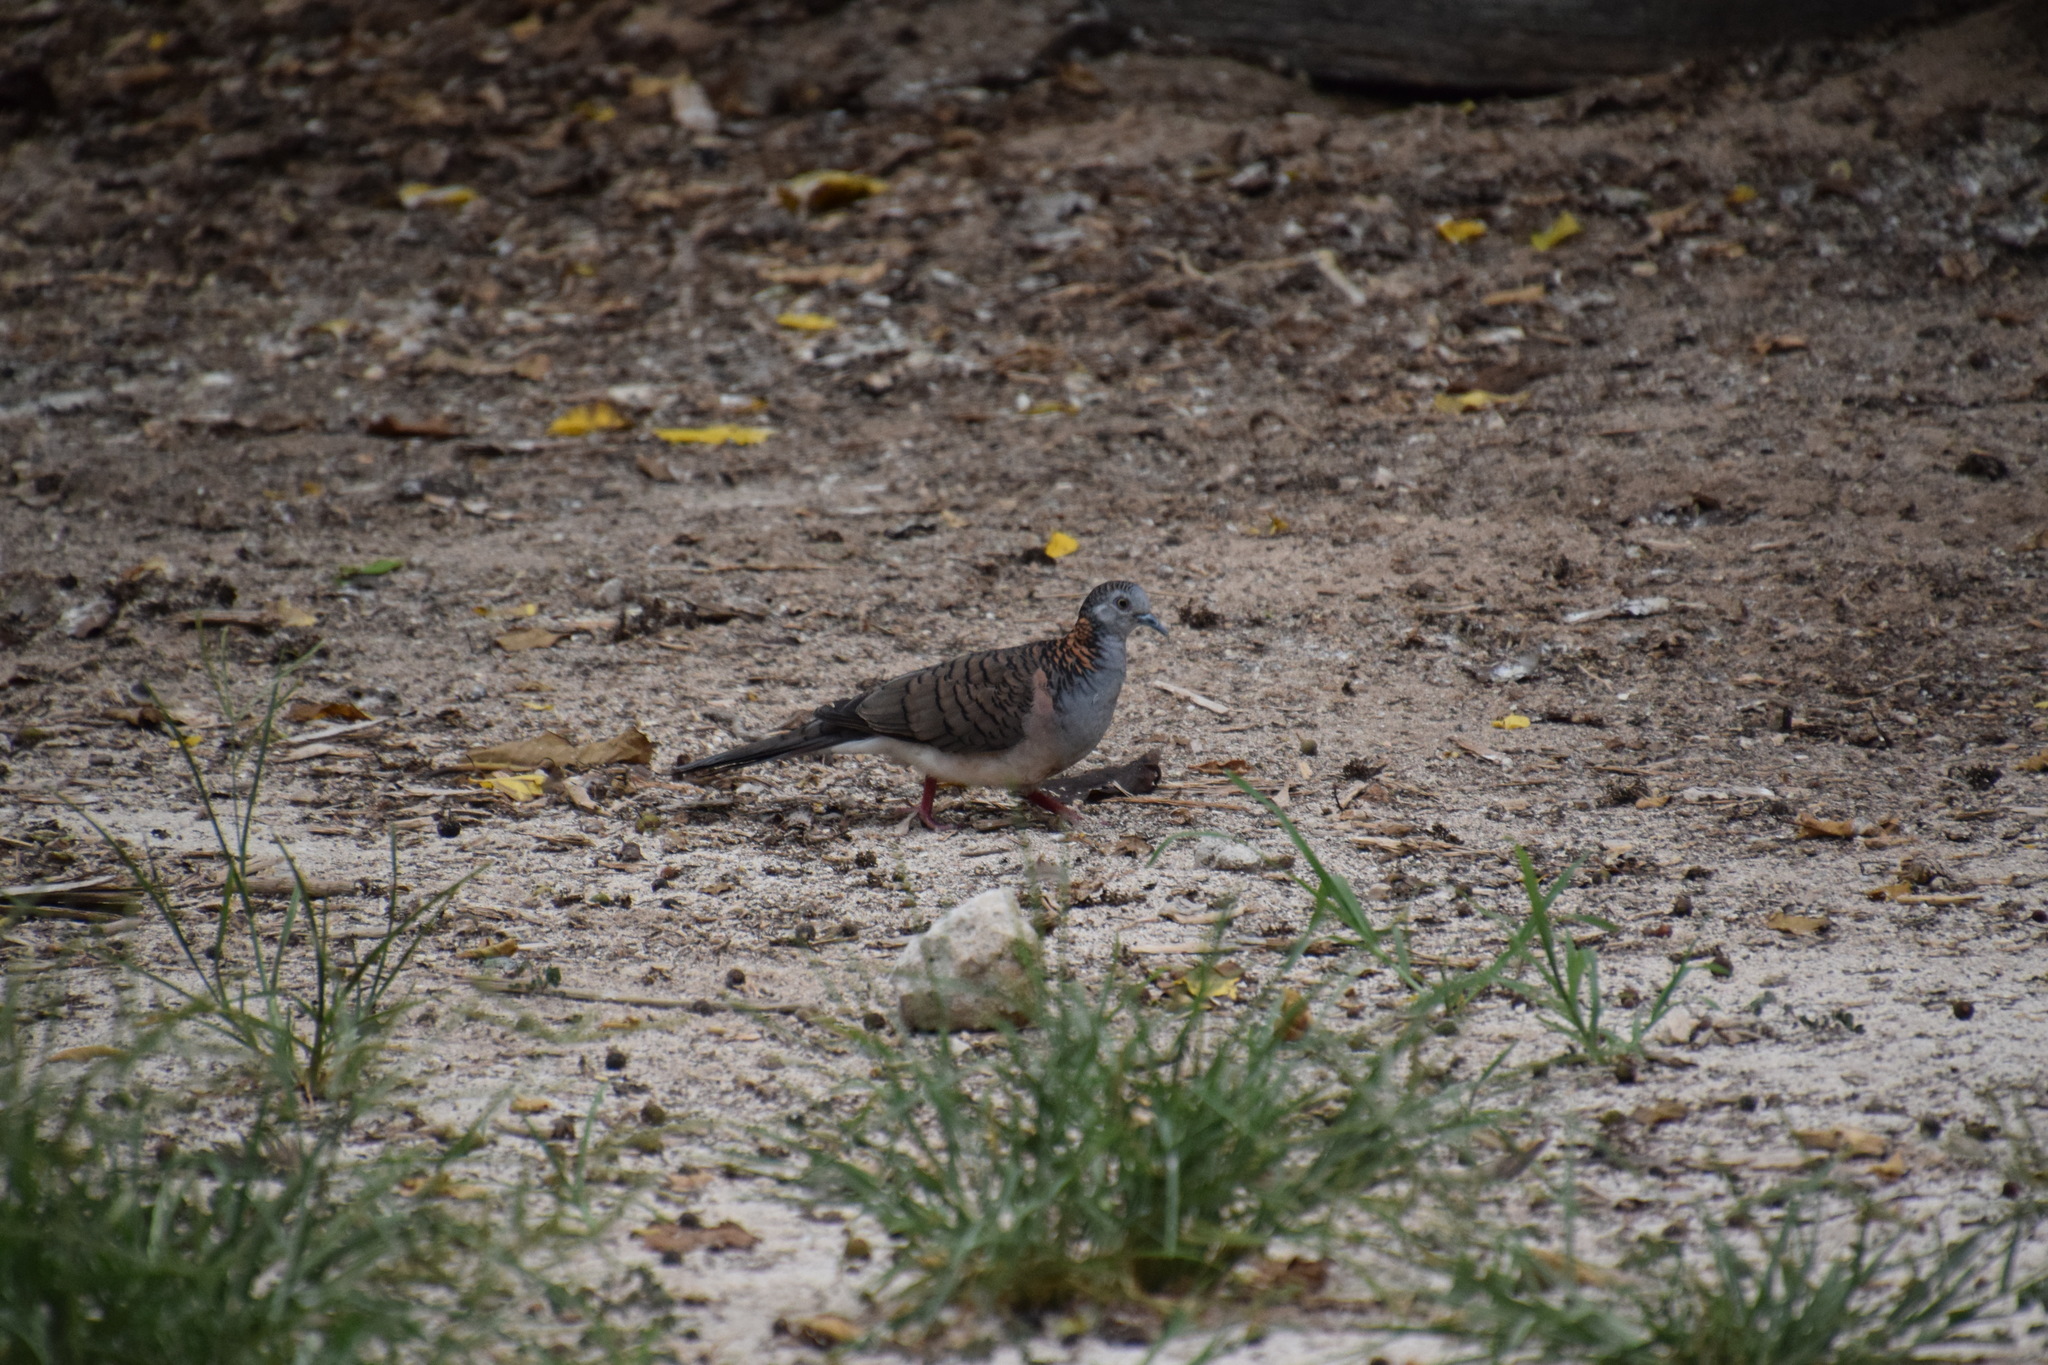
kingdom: Animalia
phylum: Chordata
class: Aves
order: Columbiformes
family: Columbidae
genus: Geopelia
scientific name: Geopelia humeralis
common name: Bar-shouldered dove
